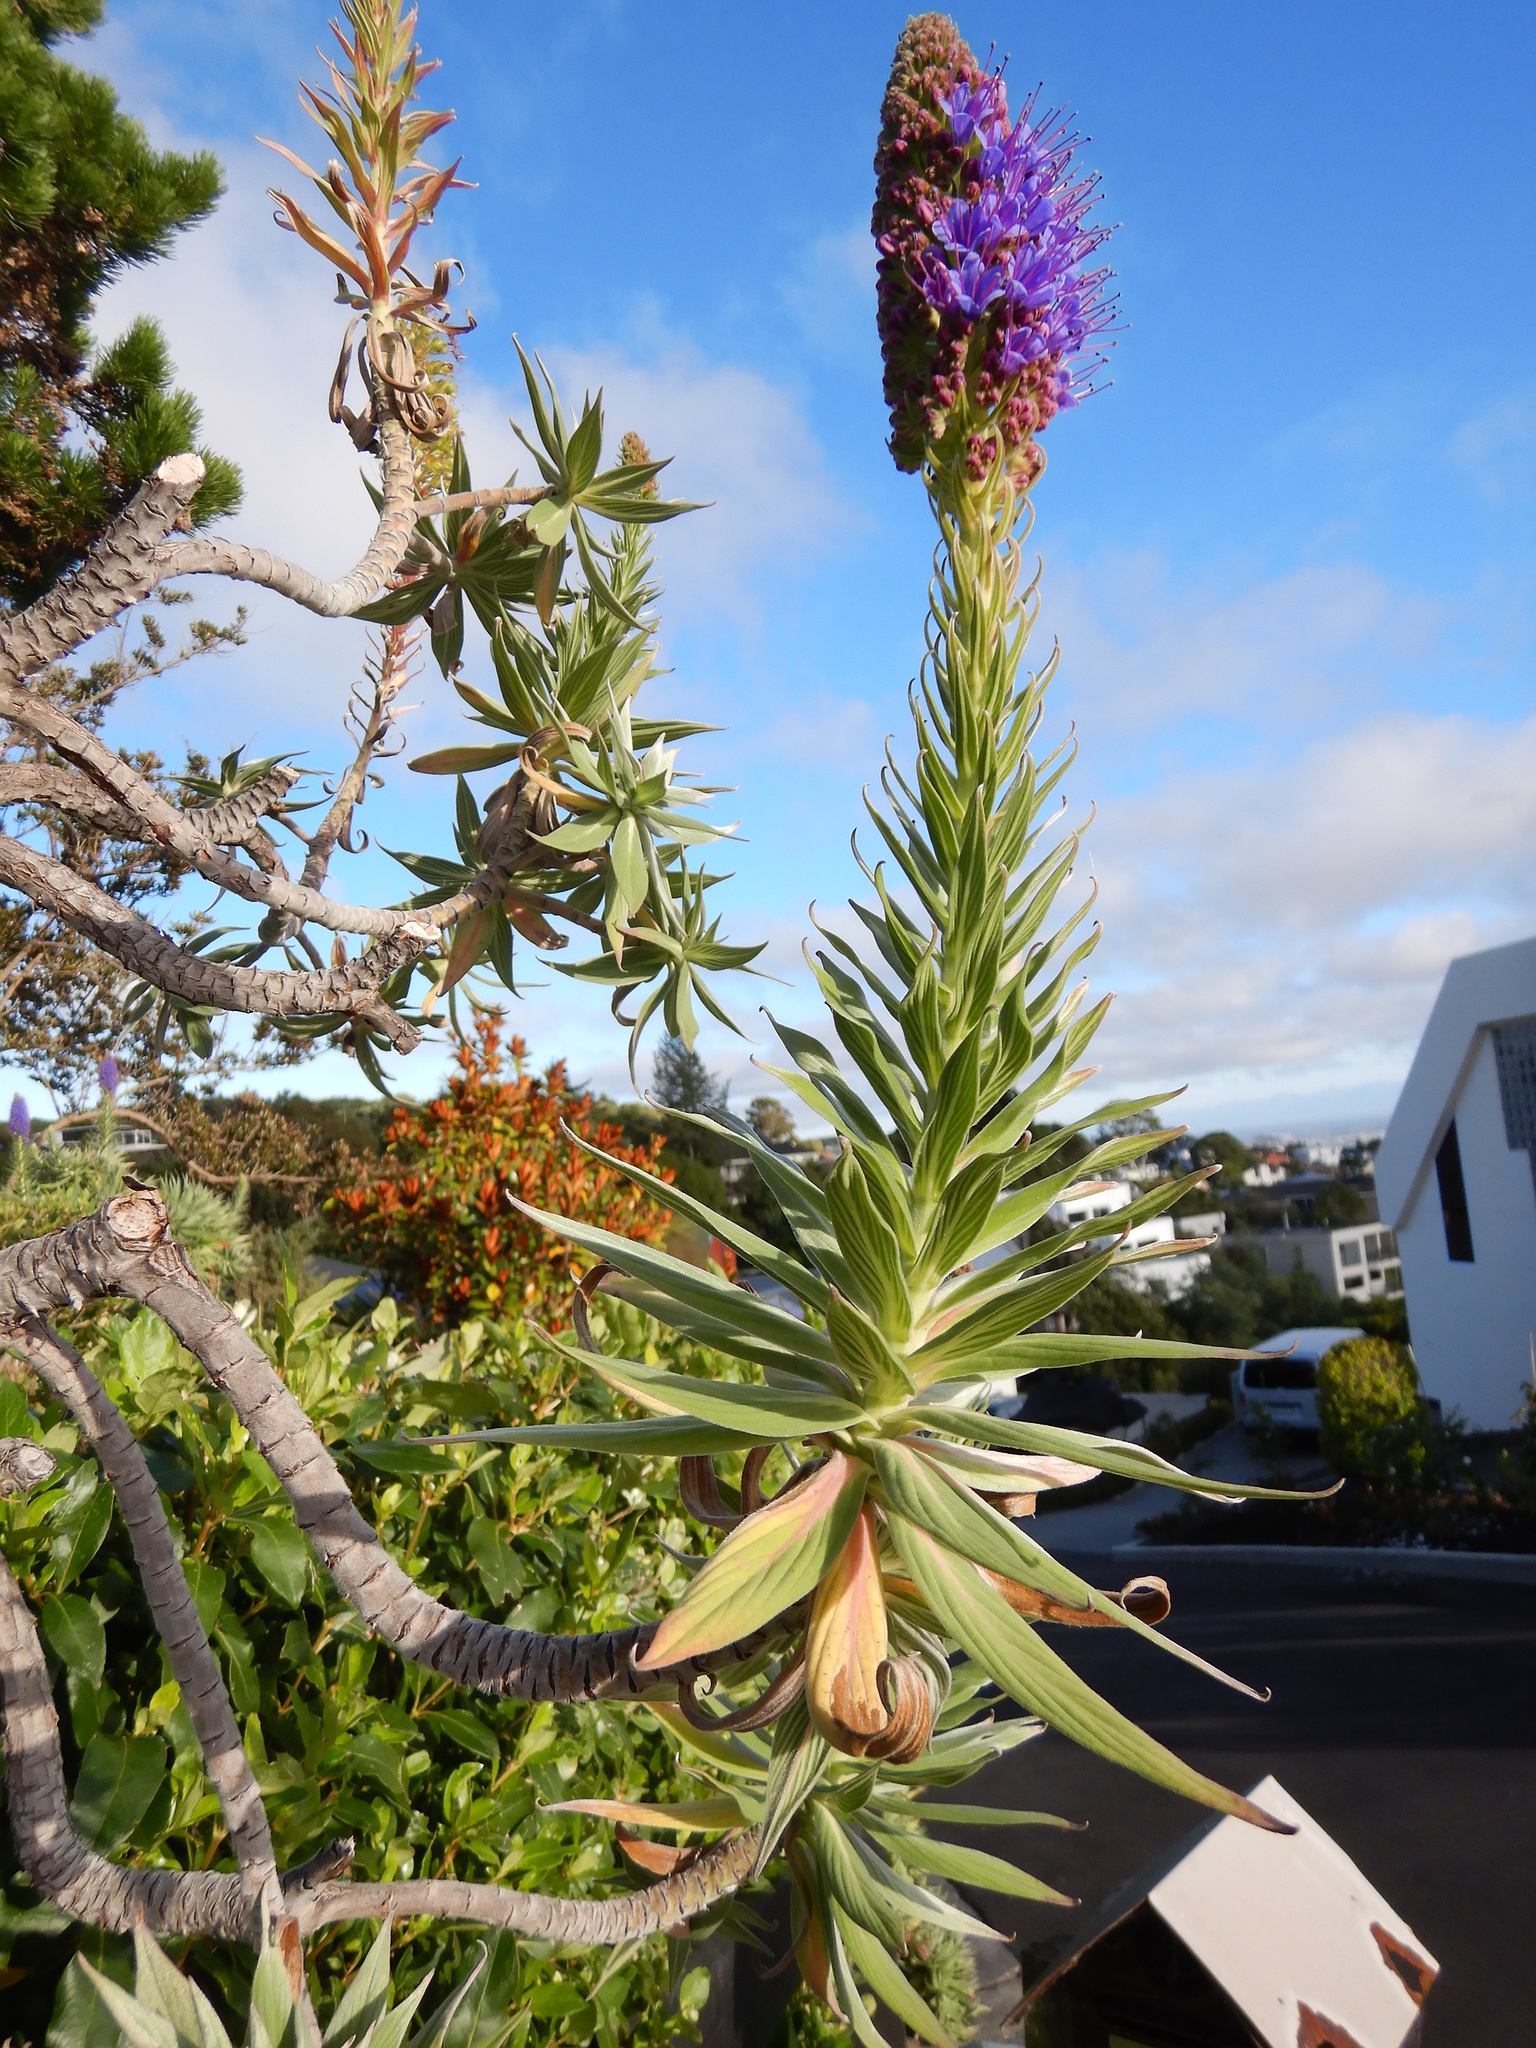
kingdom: Plantae
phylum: Tracheophyta
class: Magnoliopsida
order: Boraginales
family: Boraginaceae
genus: Echium
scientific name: Echium candicans
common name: Pride of madeira
